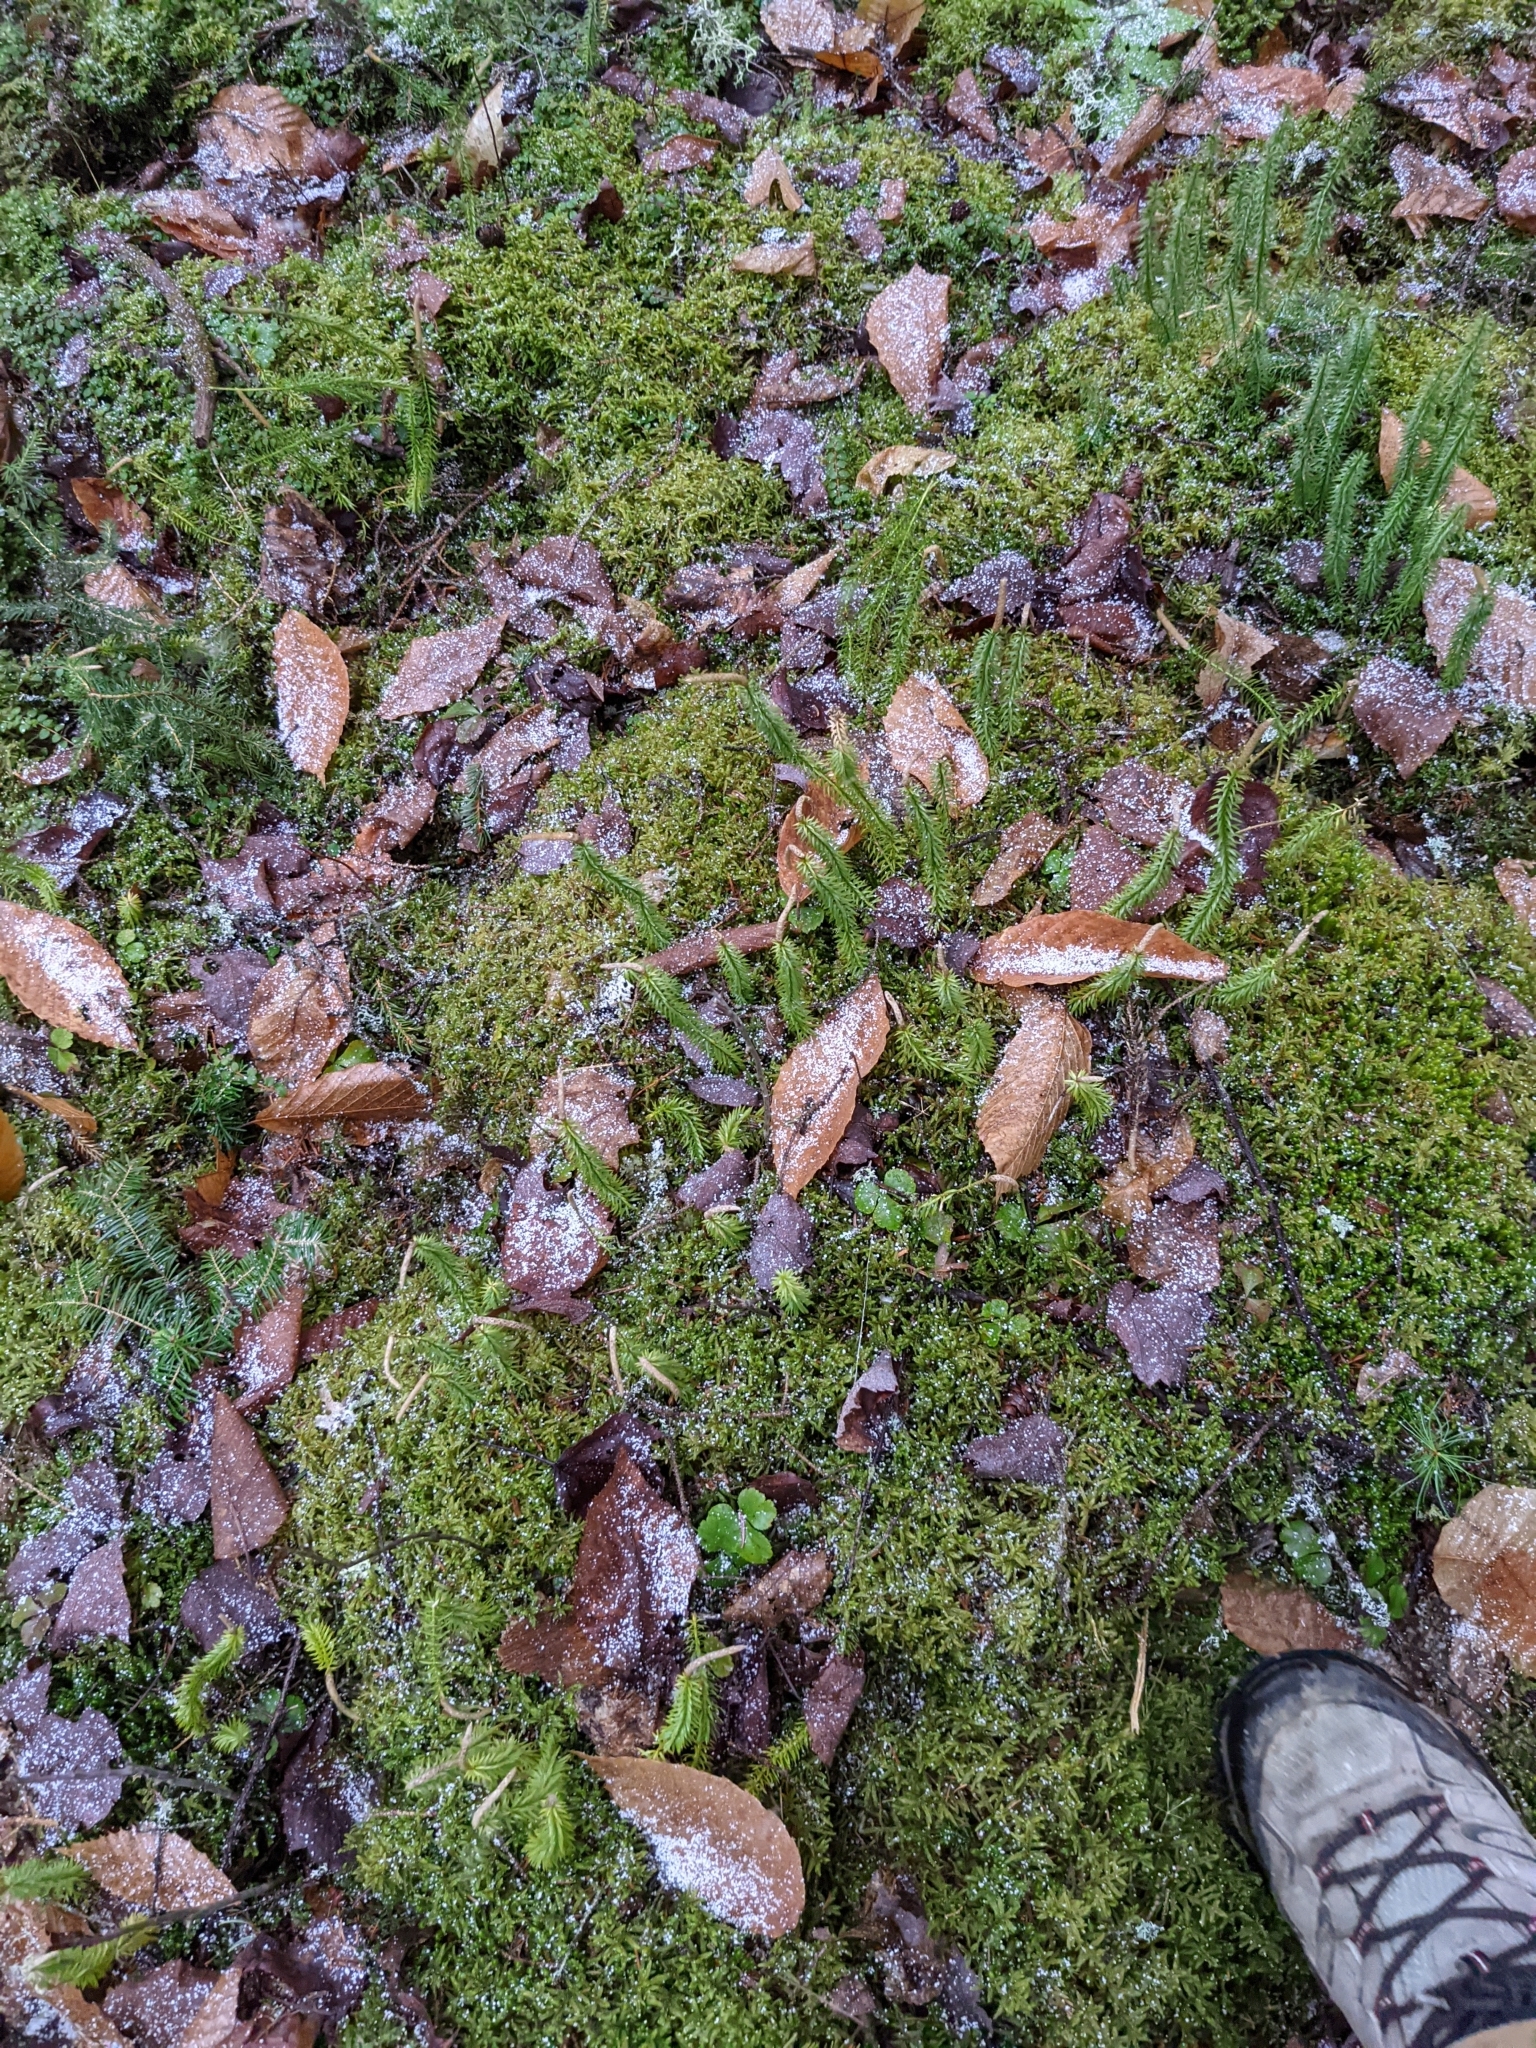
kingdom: Plantae
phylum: Tracheophyta
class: Lycopodiopsida
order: Lycopodiales
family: Lycopodiaceae
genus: Spinulum
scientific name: Spinulum annotinum
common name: Interrupted club-moss
